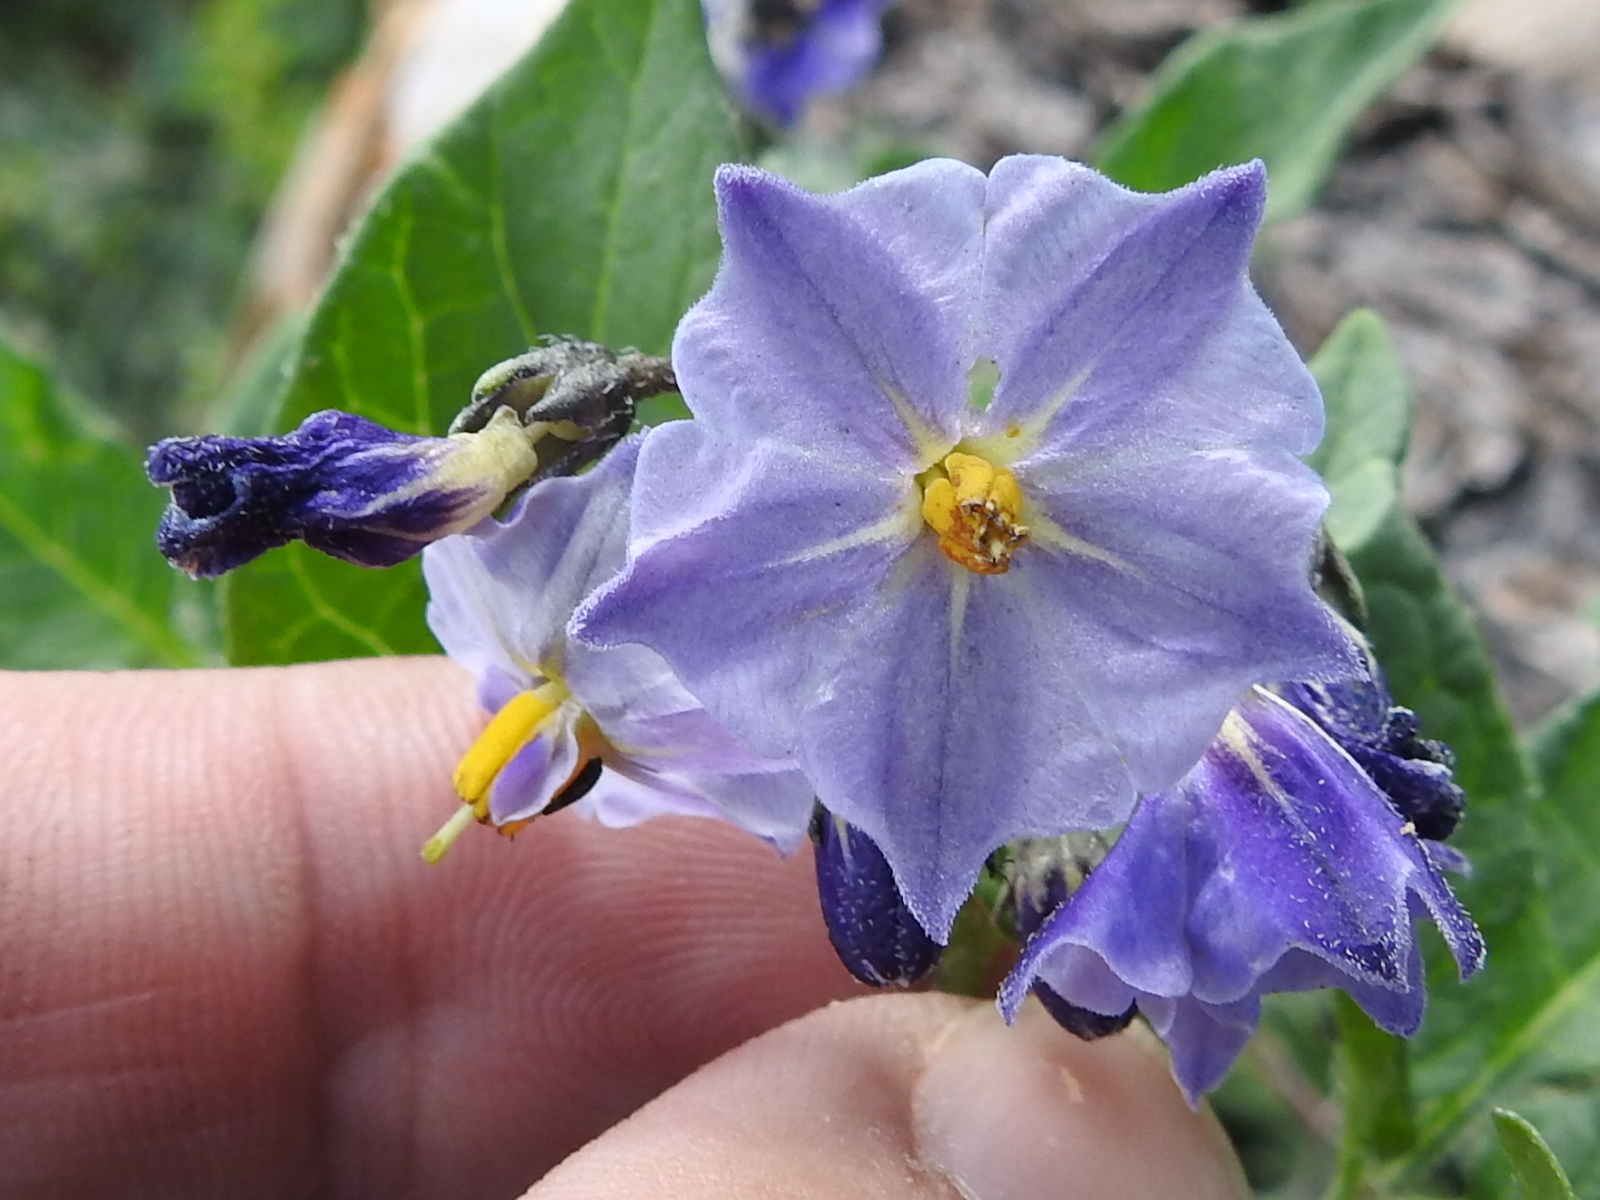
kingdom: Plantae
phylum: Tracheophyta
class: Magnoliopsida
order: Solanales
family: Solanaceae
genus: Solanum
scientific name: Solanum stoloniferum
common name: Fendler's nighshade
